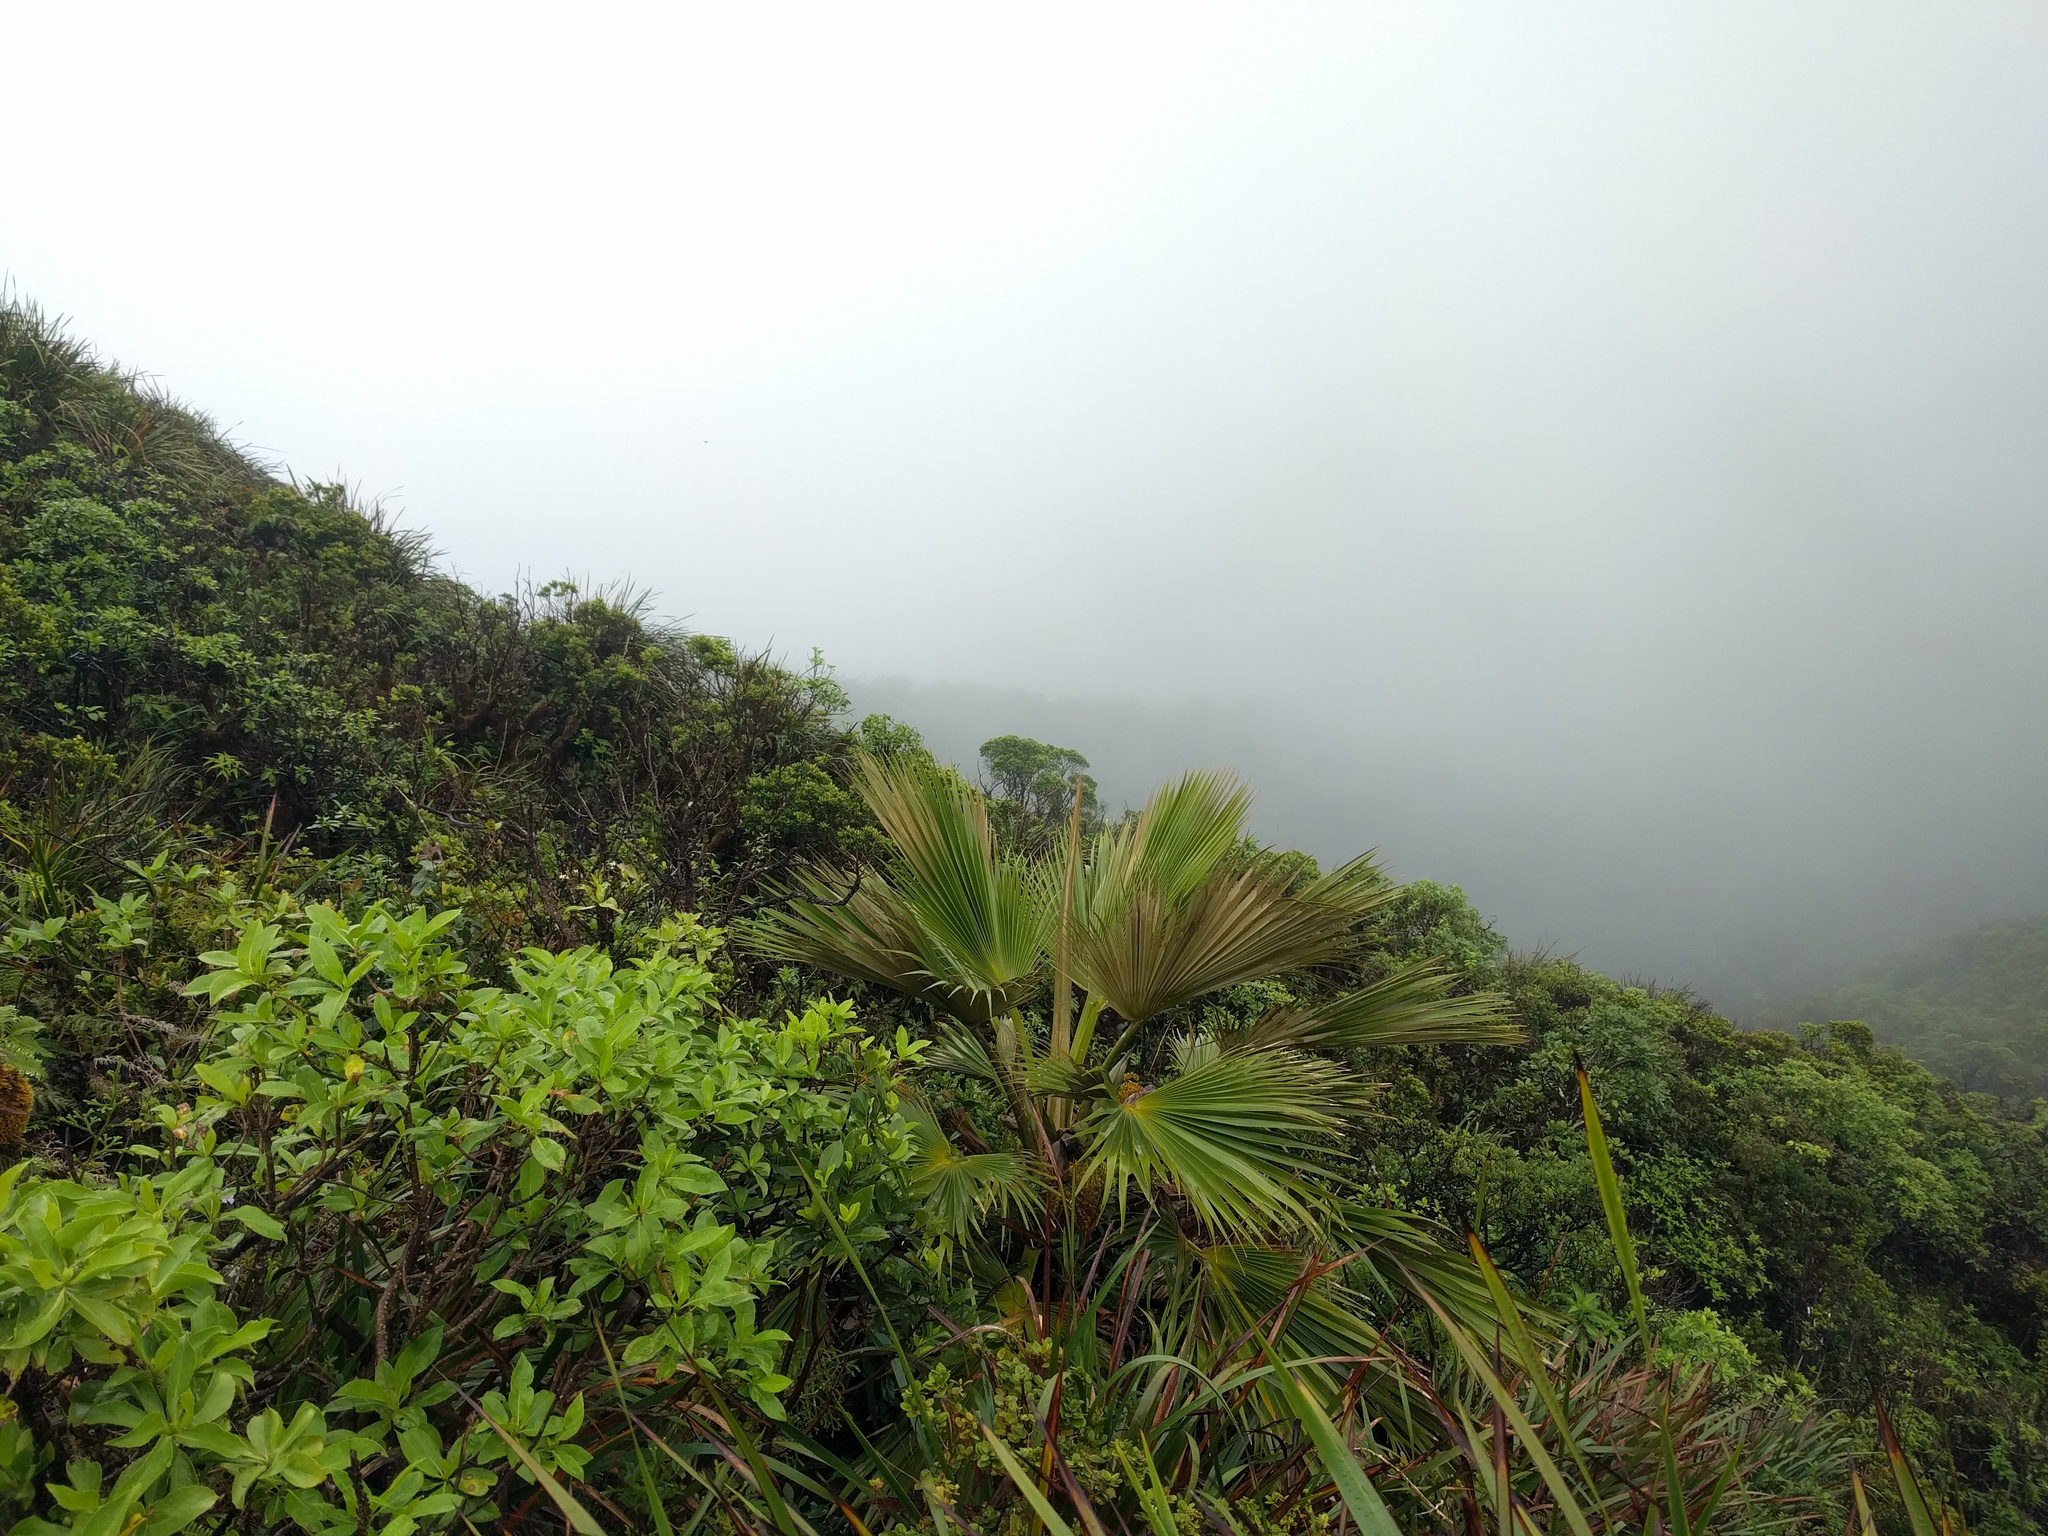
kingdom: Plantae
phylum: Tracheophyta
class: Liliopsida
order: Arecales
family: Arecaceae
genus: Pritchardia
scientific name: Pritchardia martii
